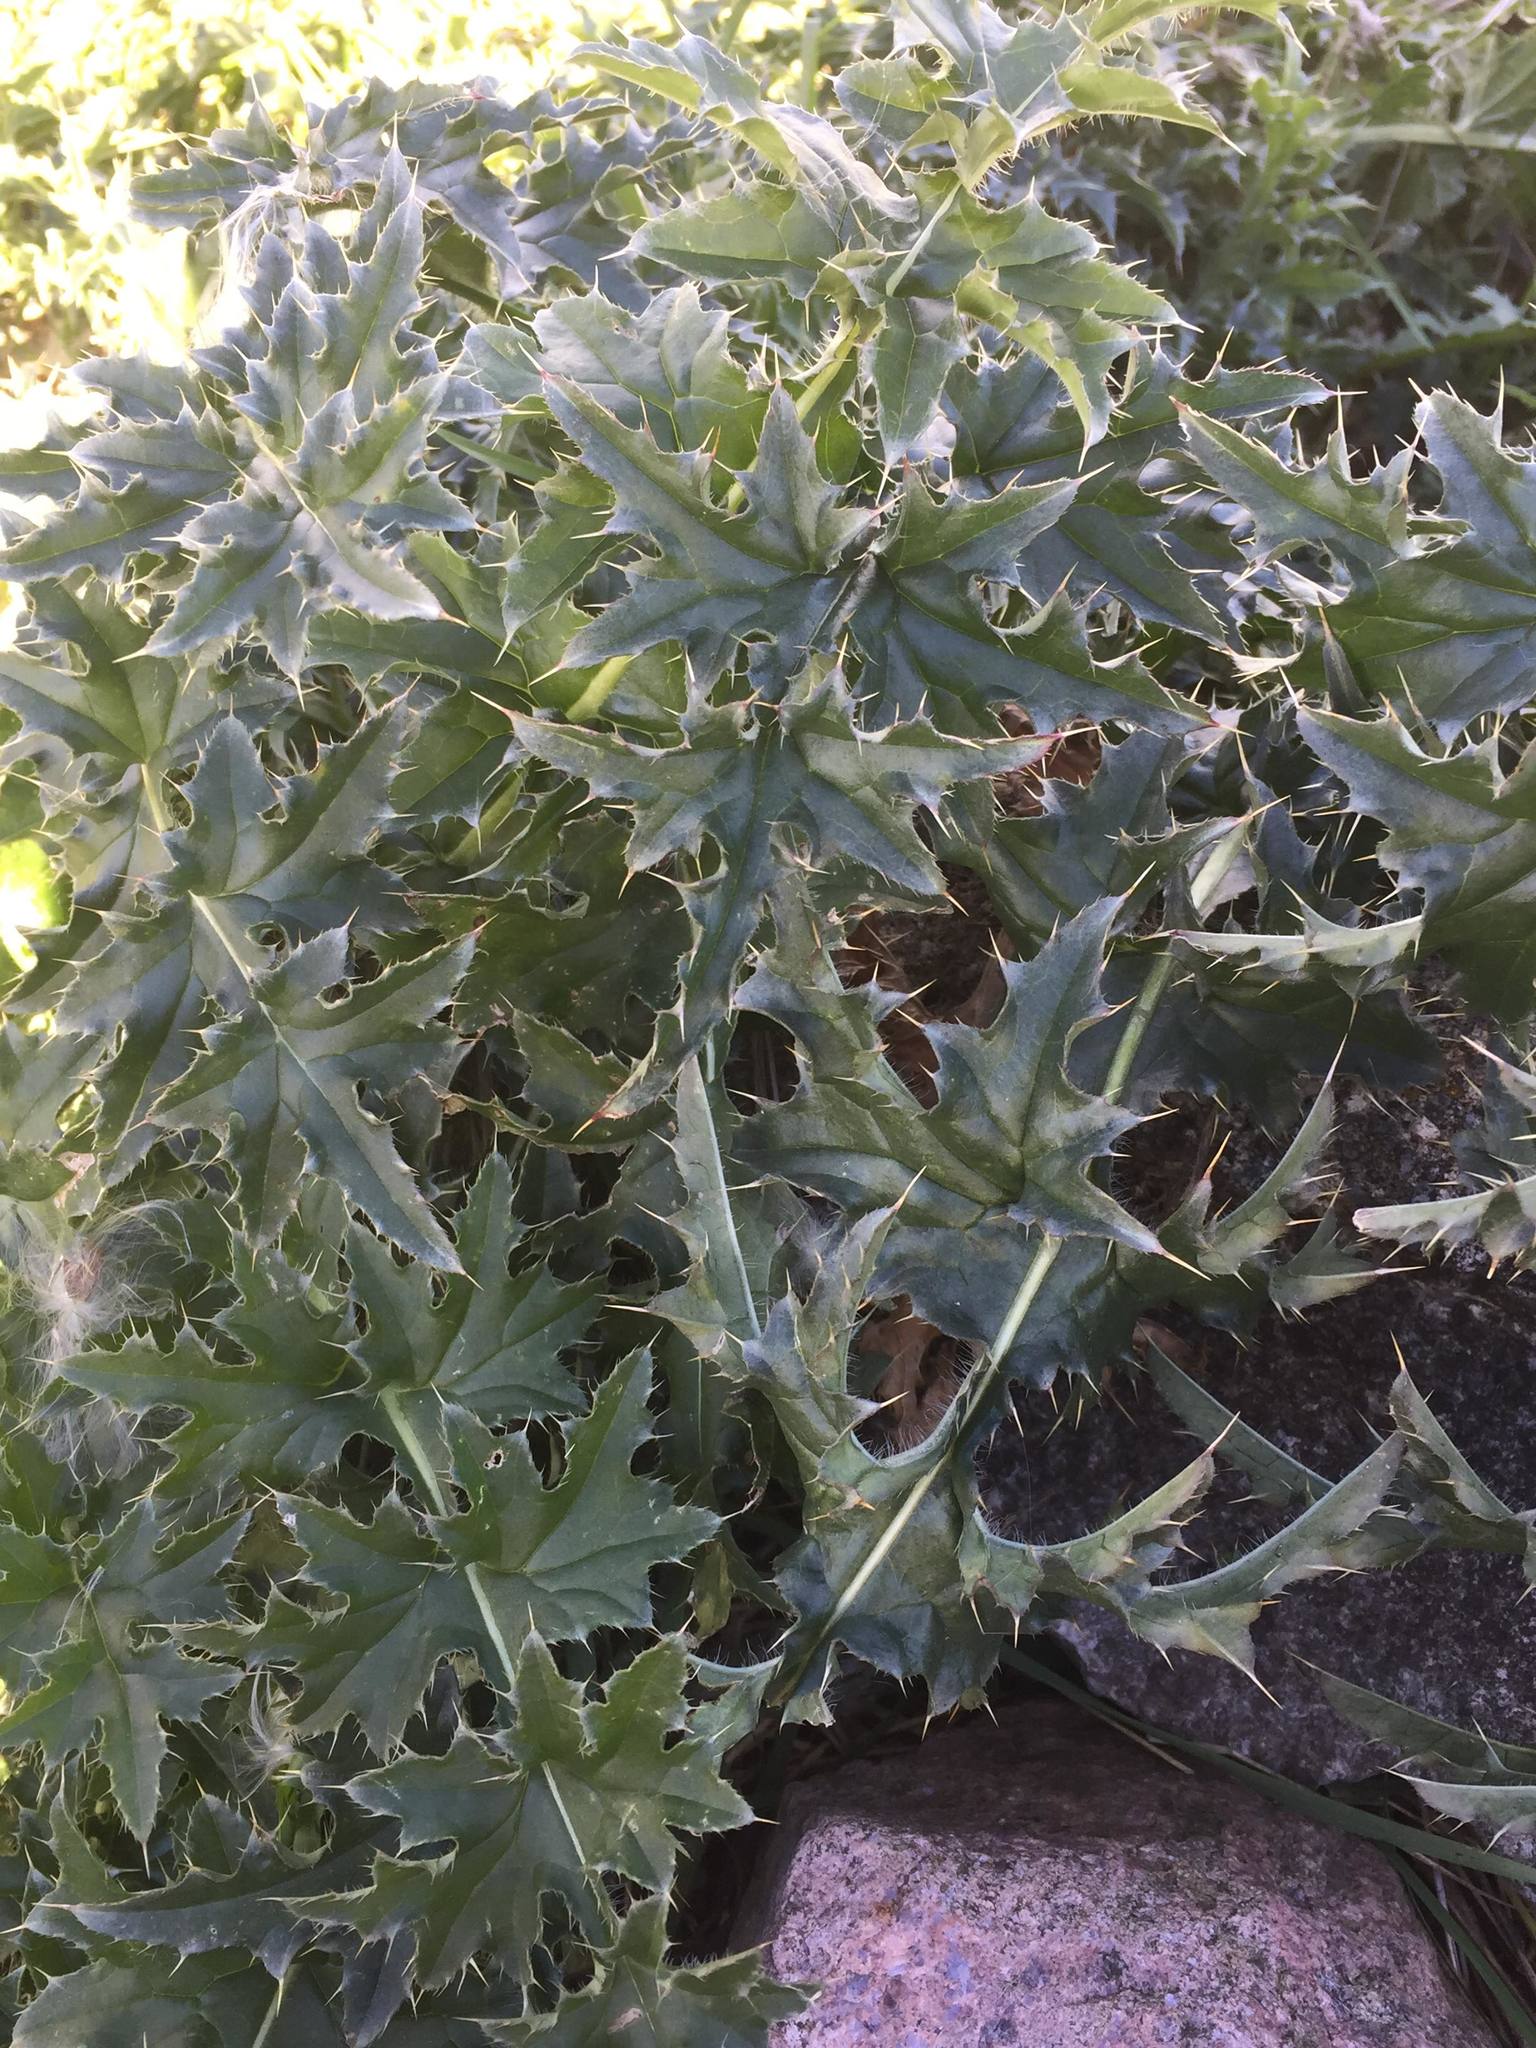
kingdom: Plantae
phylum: Tracheophyta
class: Magnoliopsida
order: Asterales
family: Asteraceae
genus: Carduus
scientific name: Carduus nutans
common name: Musk thistle
